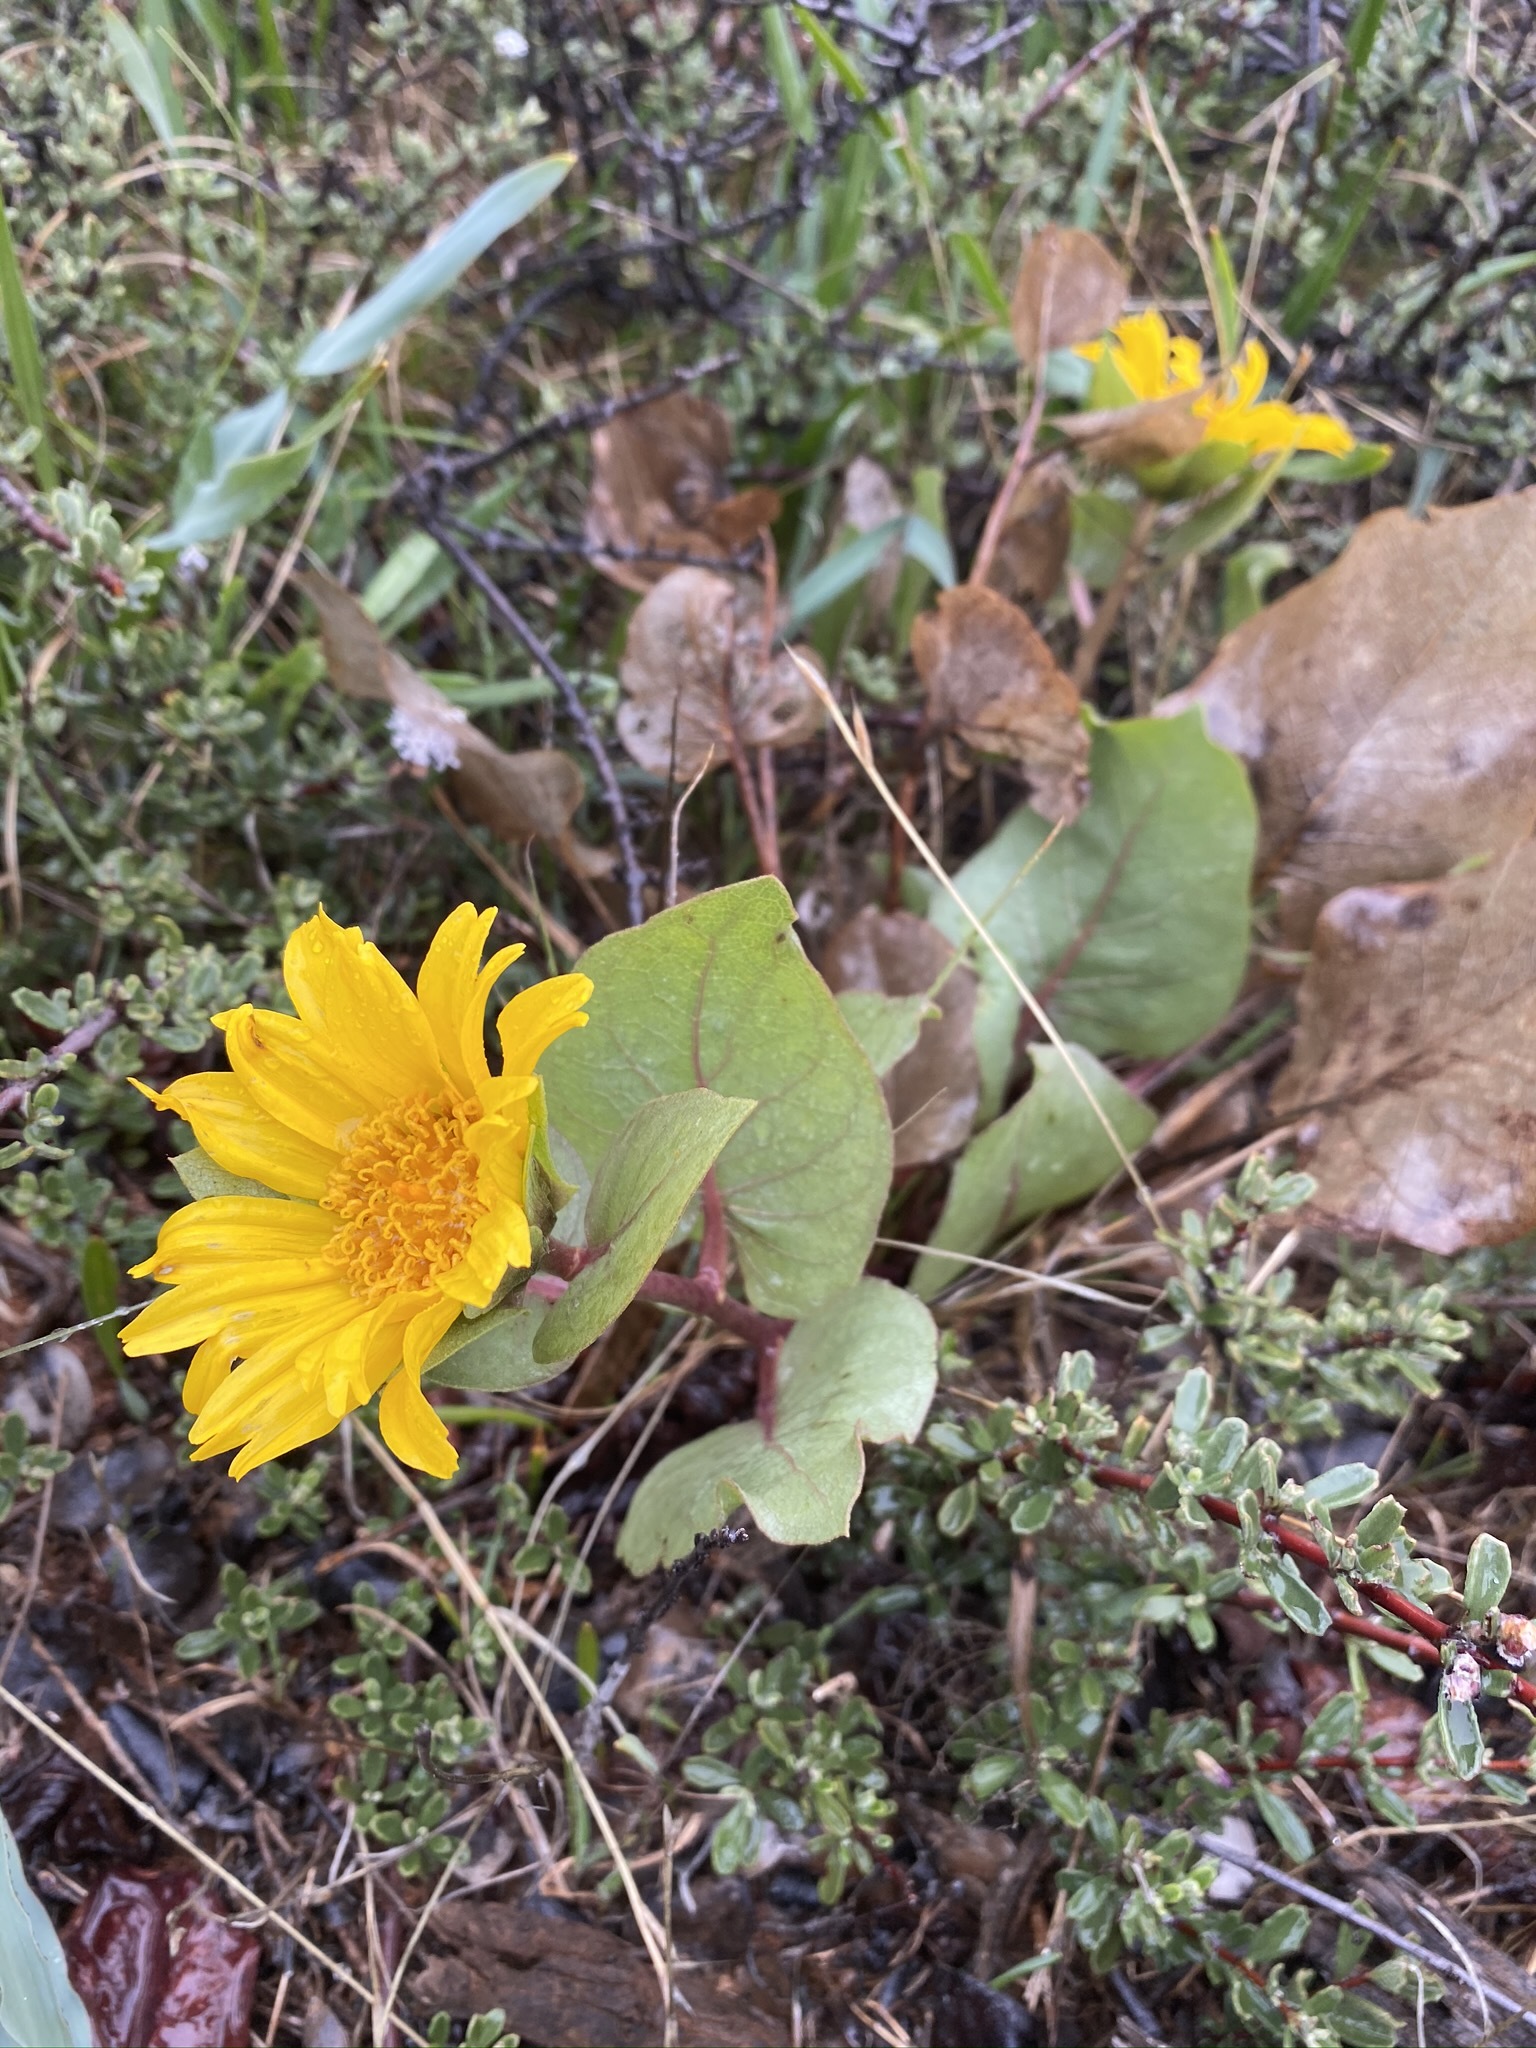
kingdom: Plantae
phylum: Tracheophyta
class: Magnoliopsida
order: Asterales
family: Asteraceae
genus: Agnorhiza
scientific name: Agnorhiza bolanderi
